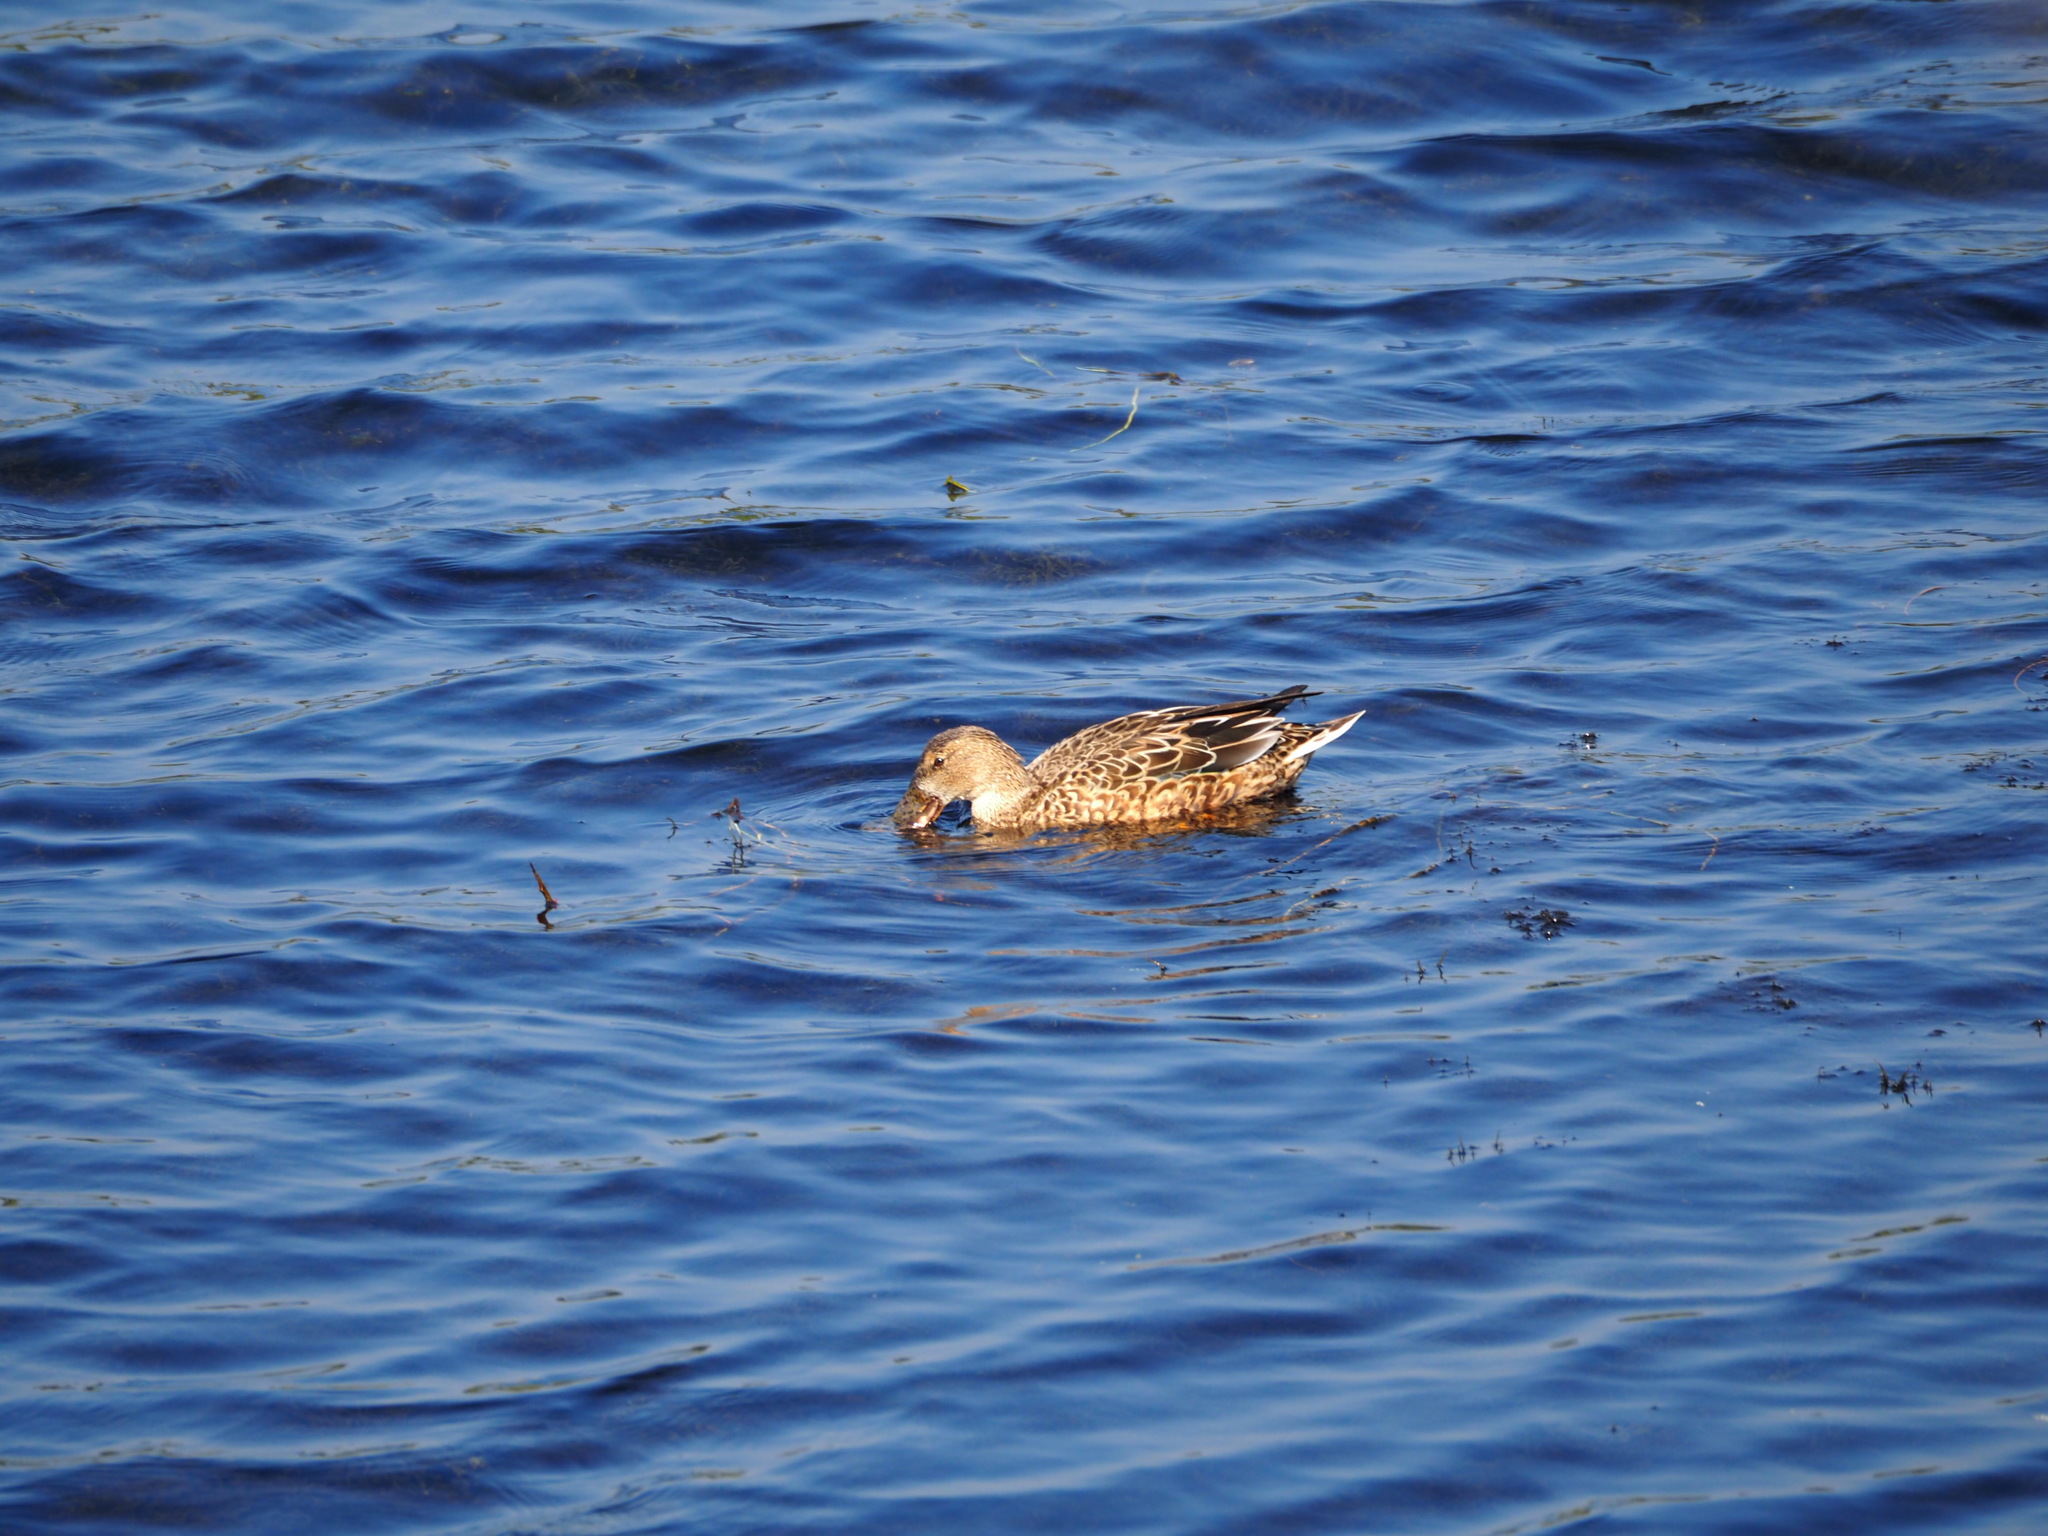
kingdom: Animalia
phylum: Chordata
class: Aves
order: Anseriformes
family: Anatidae
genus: Spatula
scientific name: Spatula clypeata
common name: Northern shoveler
